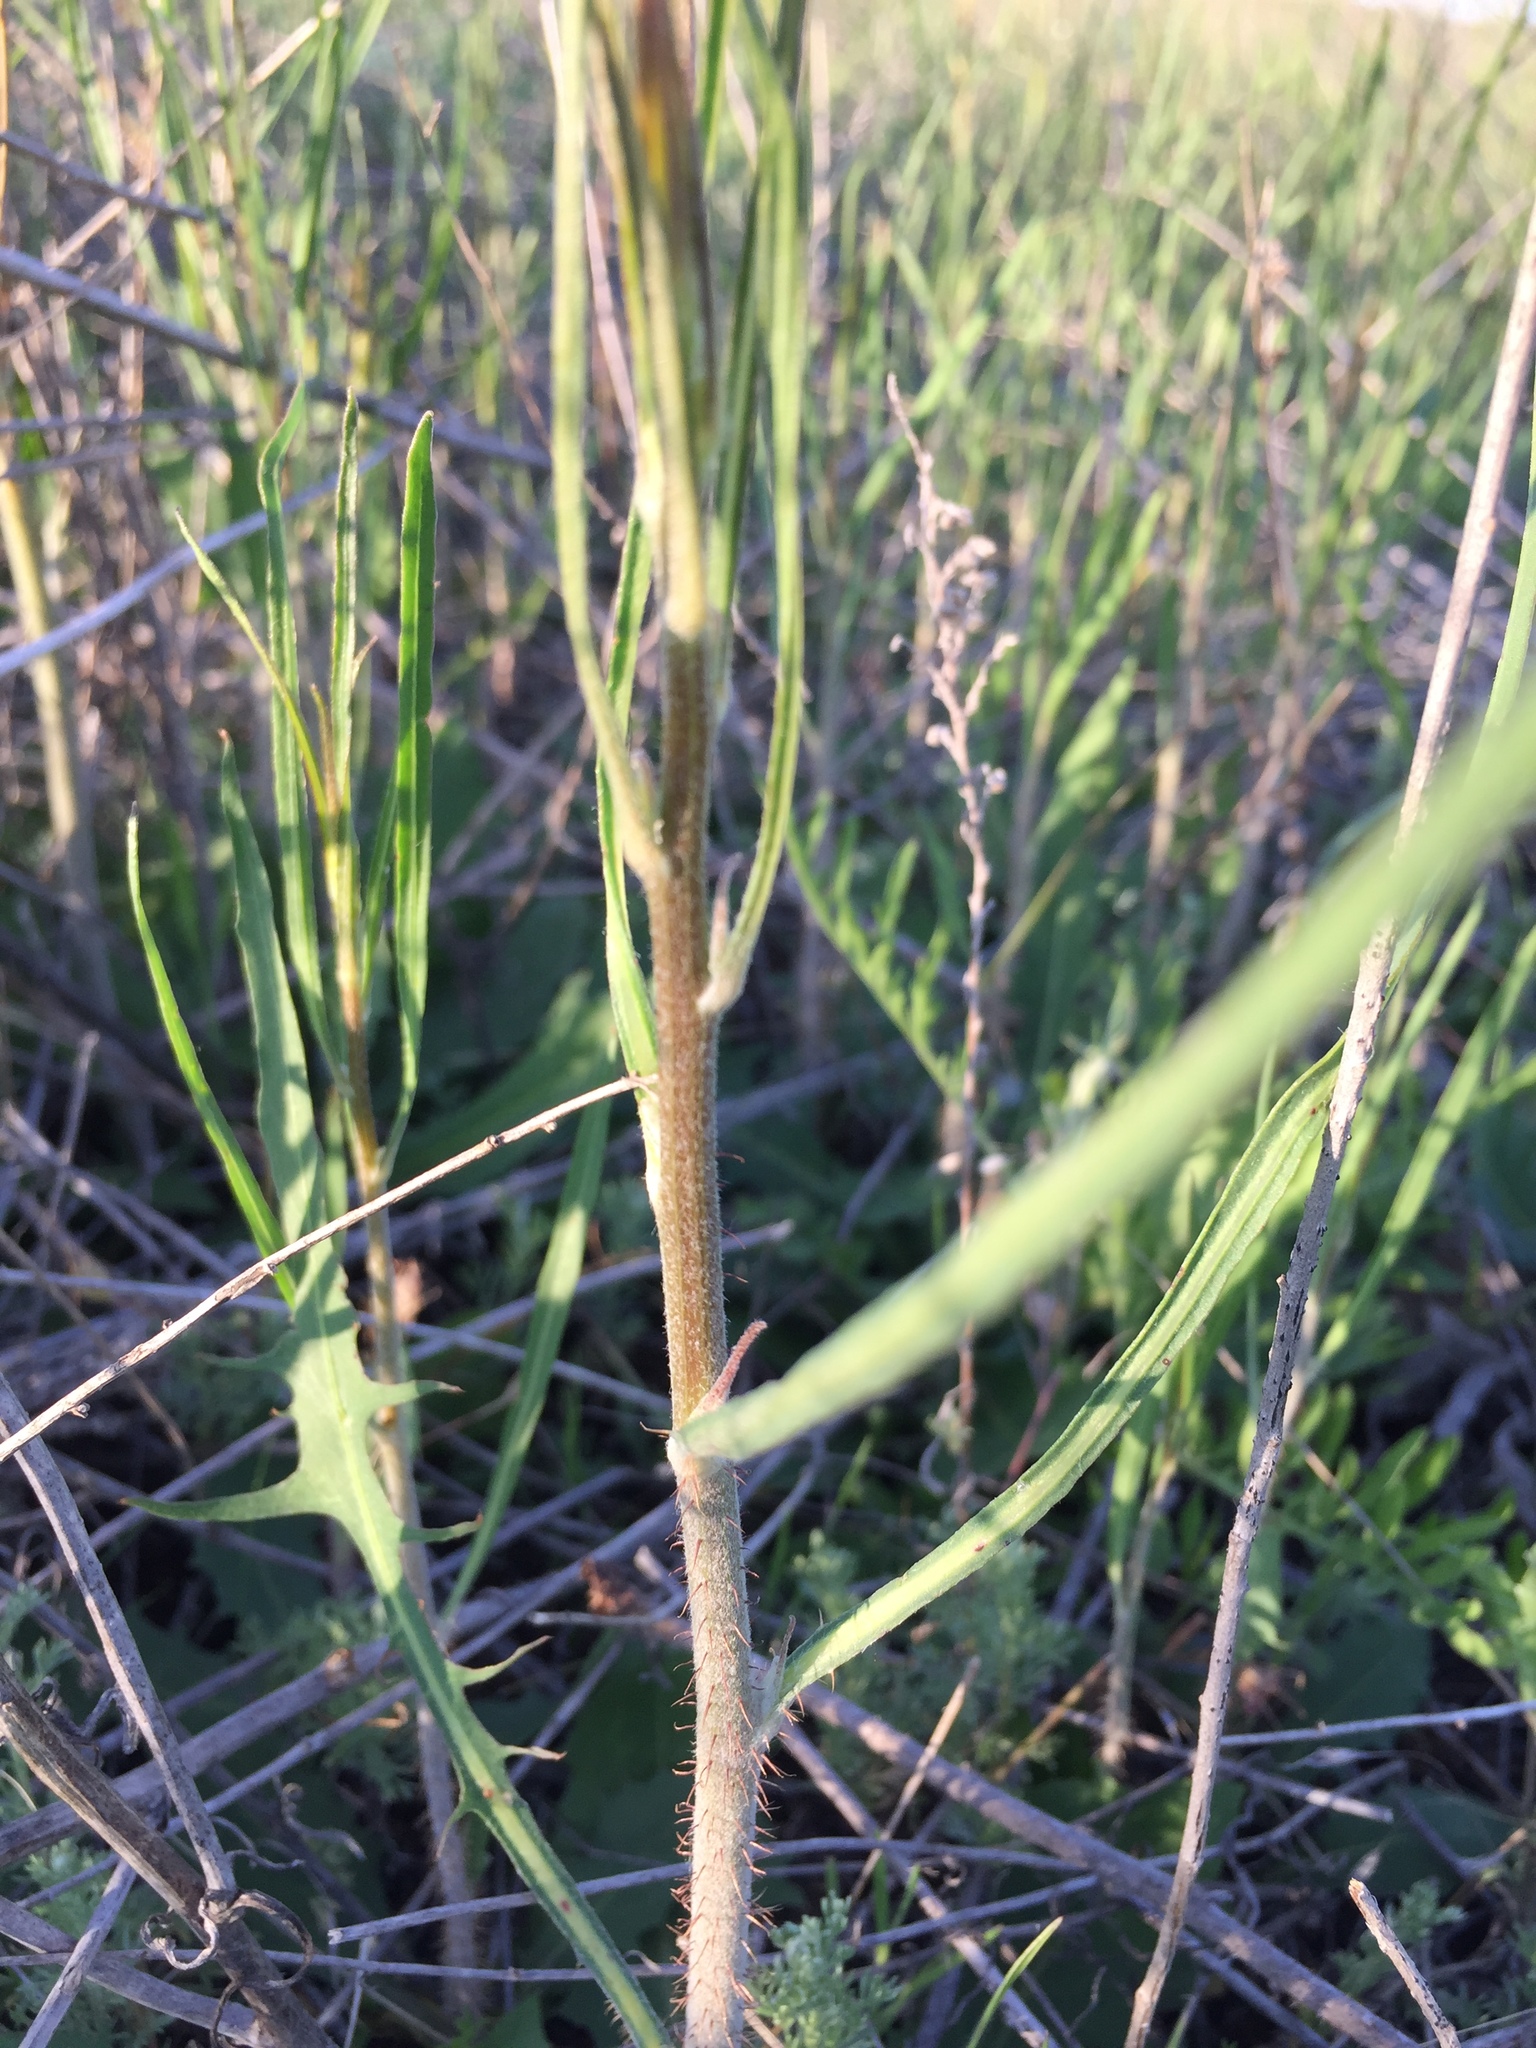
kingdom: Plantae
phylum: Tracheophyta
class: Magnoliopsida
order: Asterales
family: Asteraceae
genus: Chondrilla
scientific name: Chondrilla juncea
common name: Skeleton weed
